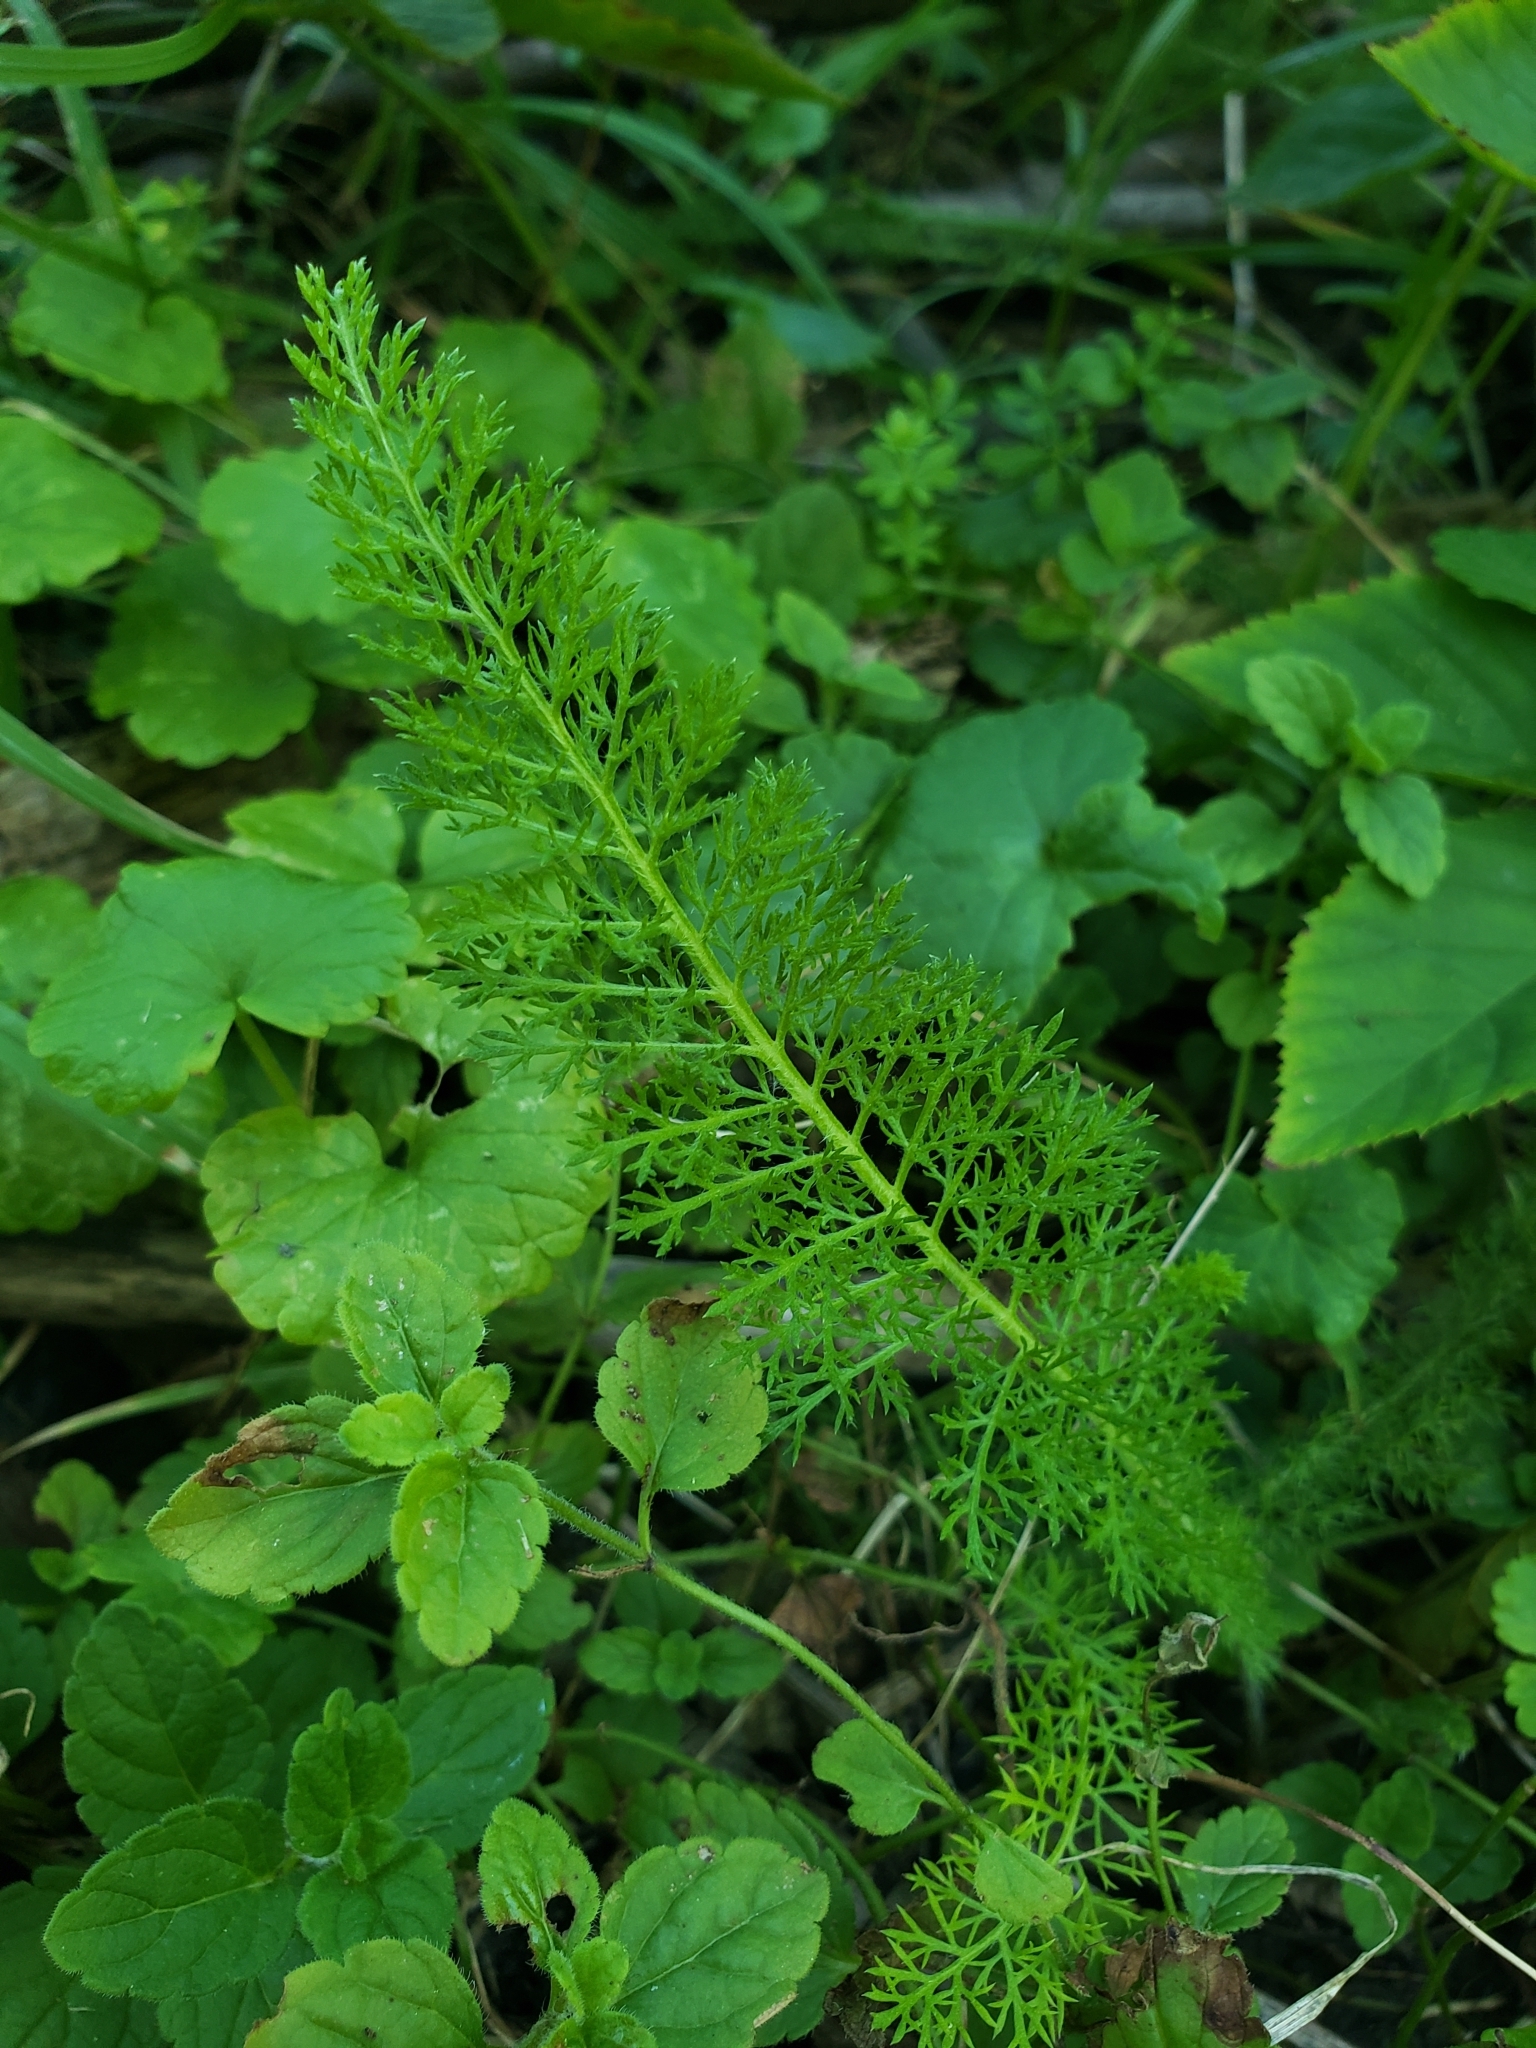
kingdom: Plantae
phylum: Tracheophyta
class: Magnoliopsida
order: Asterales
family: Asteraceae
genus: Achillea
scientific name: Achillea millefolium
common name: Yarrow
